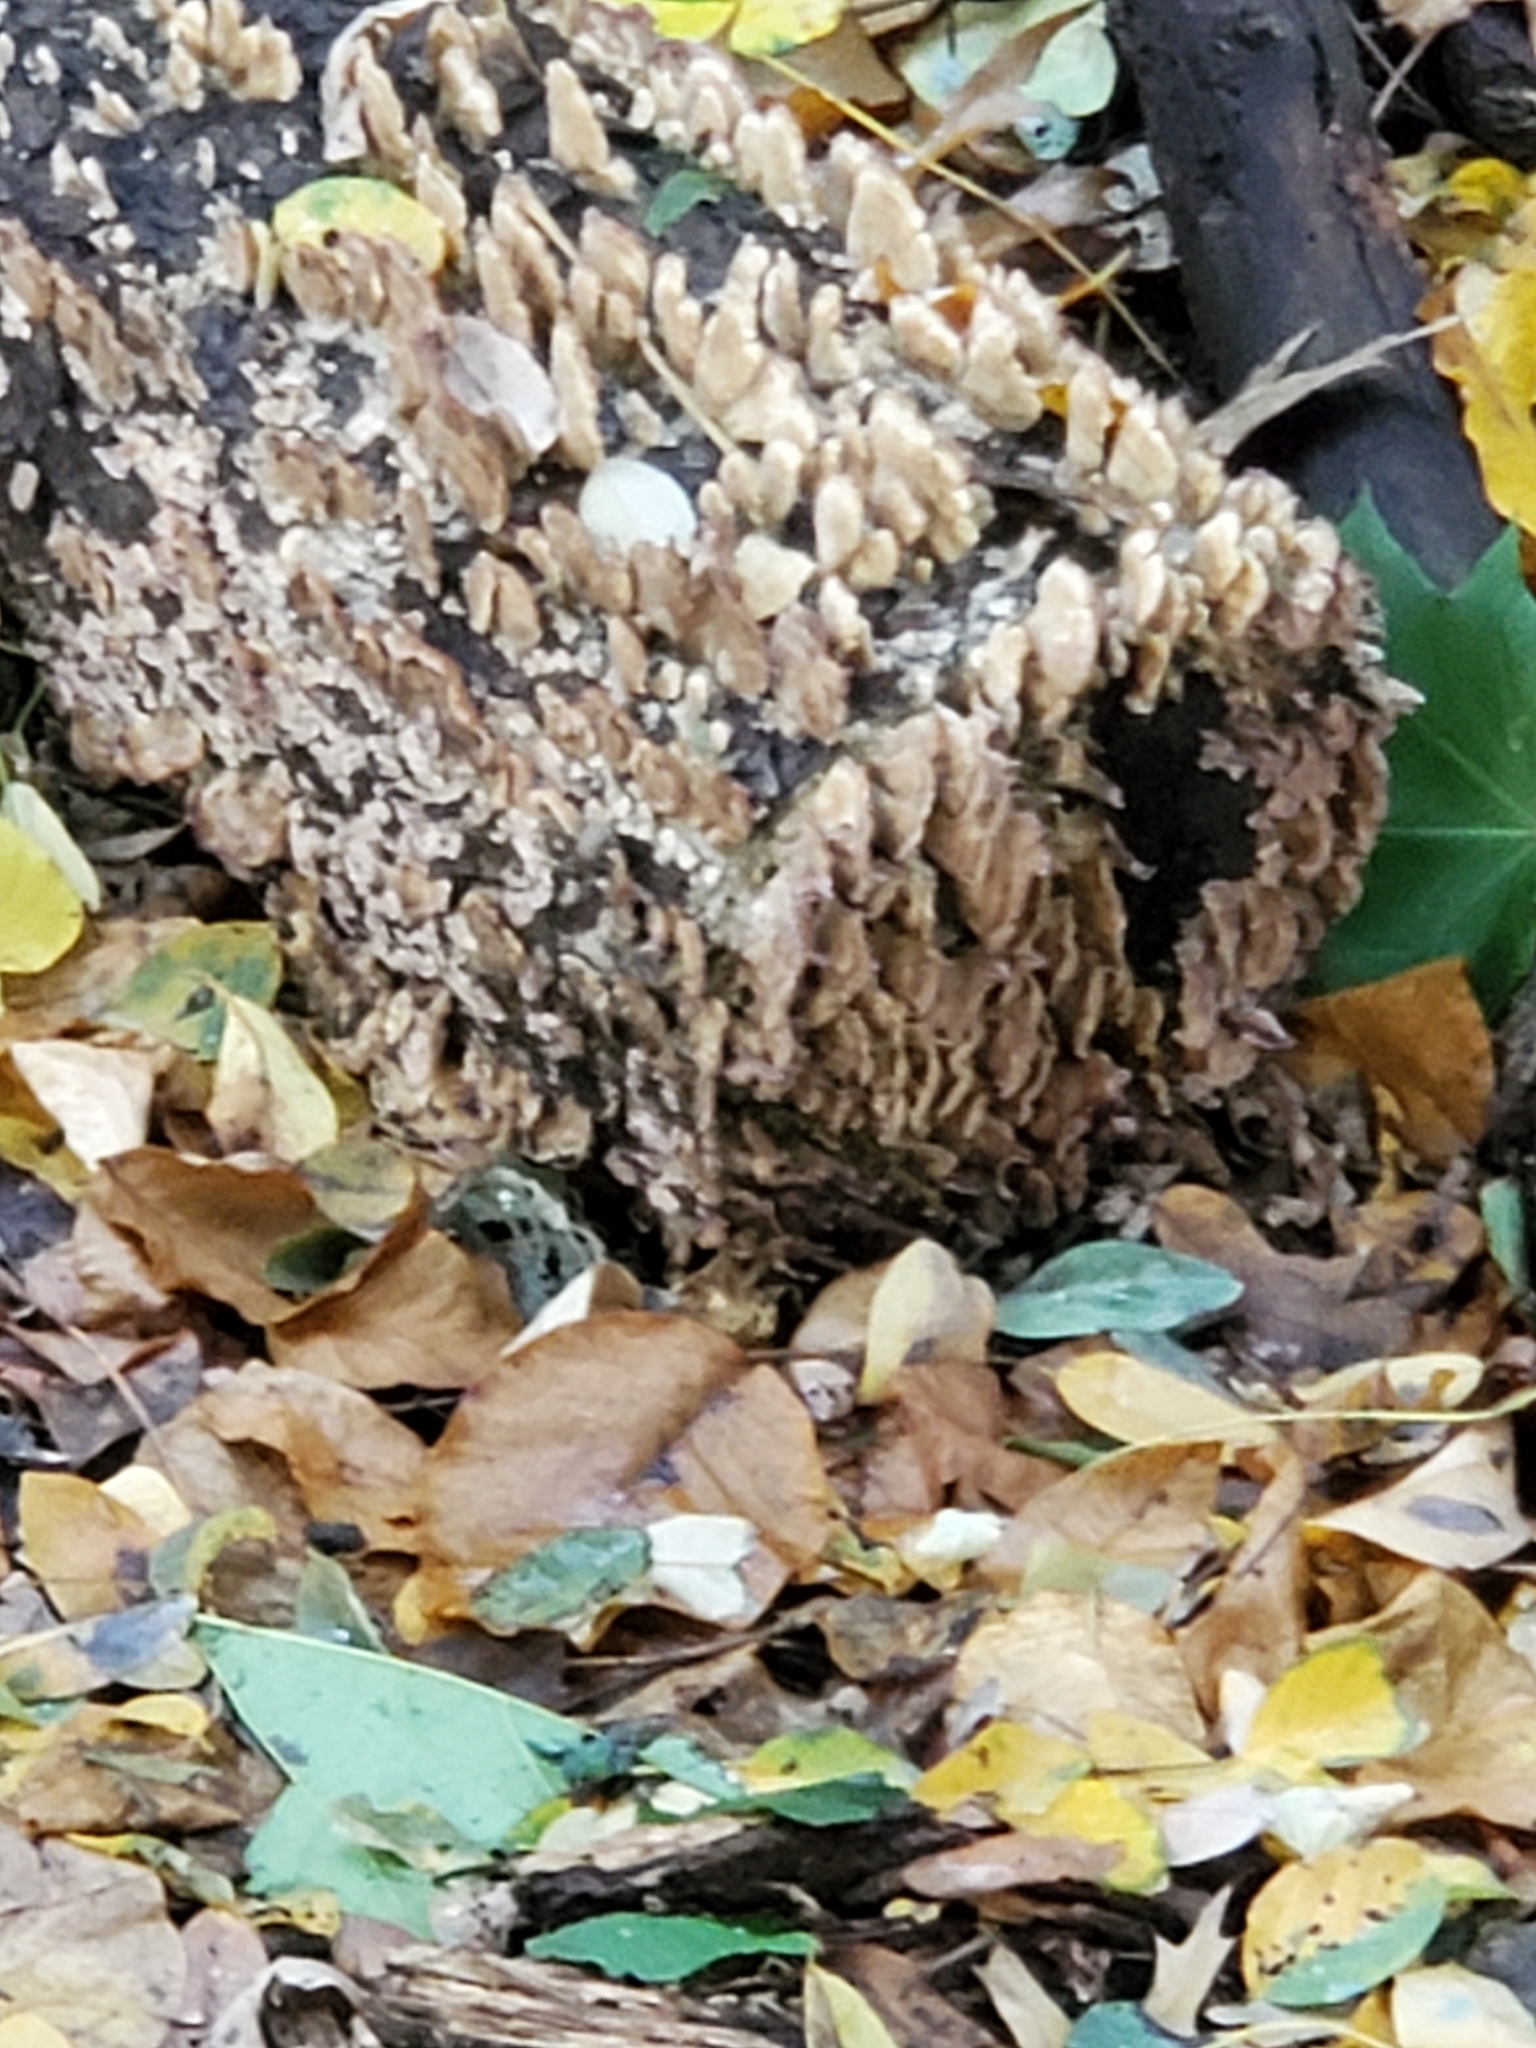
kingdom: Fungi
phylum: Basidiomycota
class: Agaricomycetes
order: Hymenochaetales
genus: Trichaptum
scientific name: Trichaptum biforme
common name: Violet-toothed polypore
